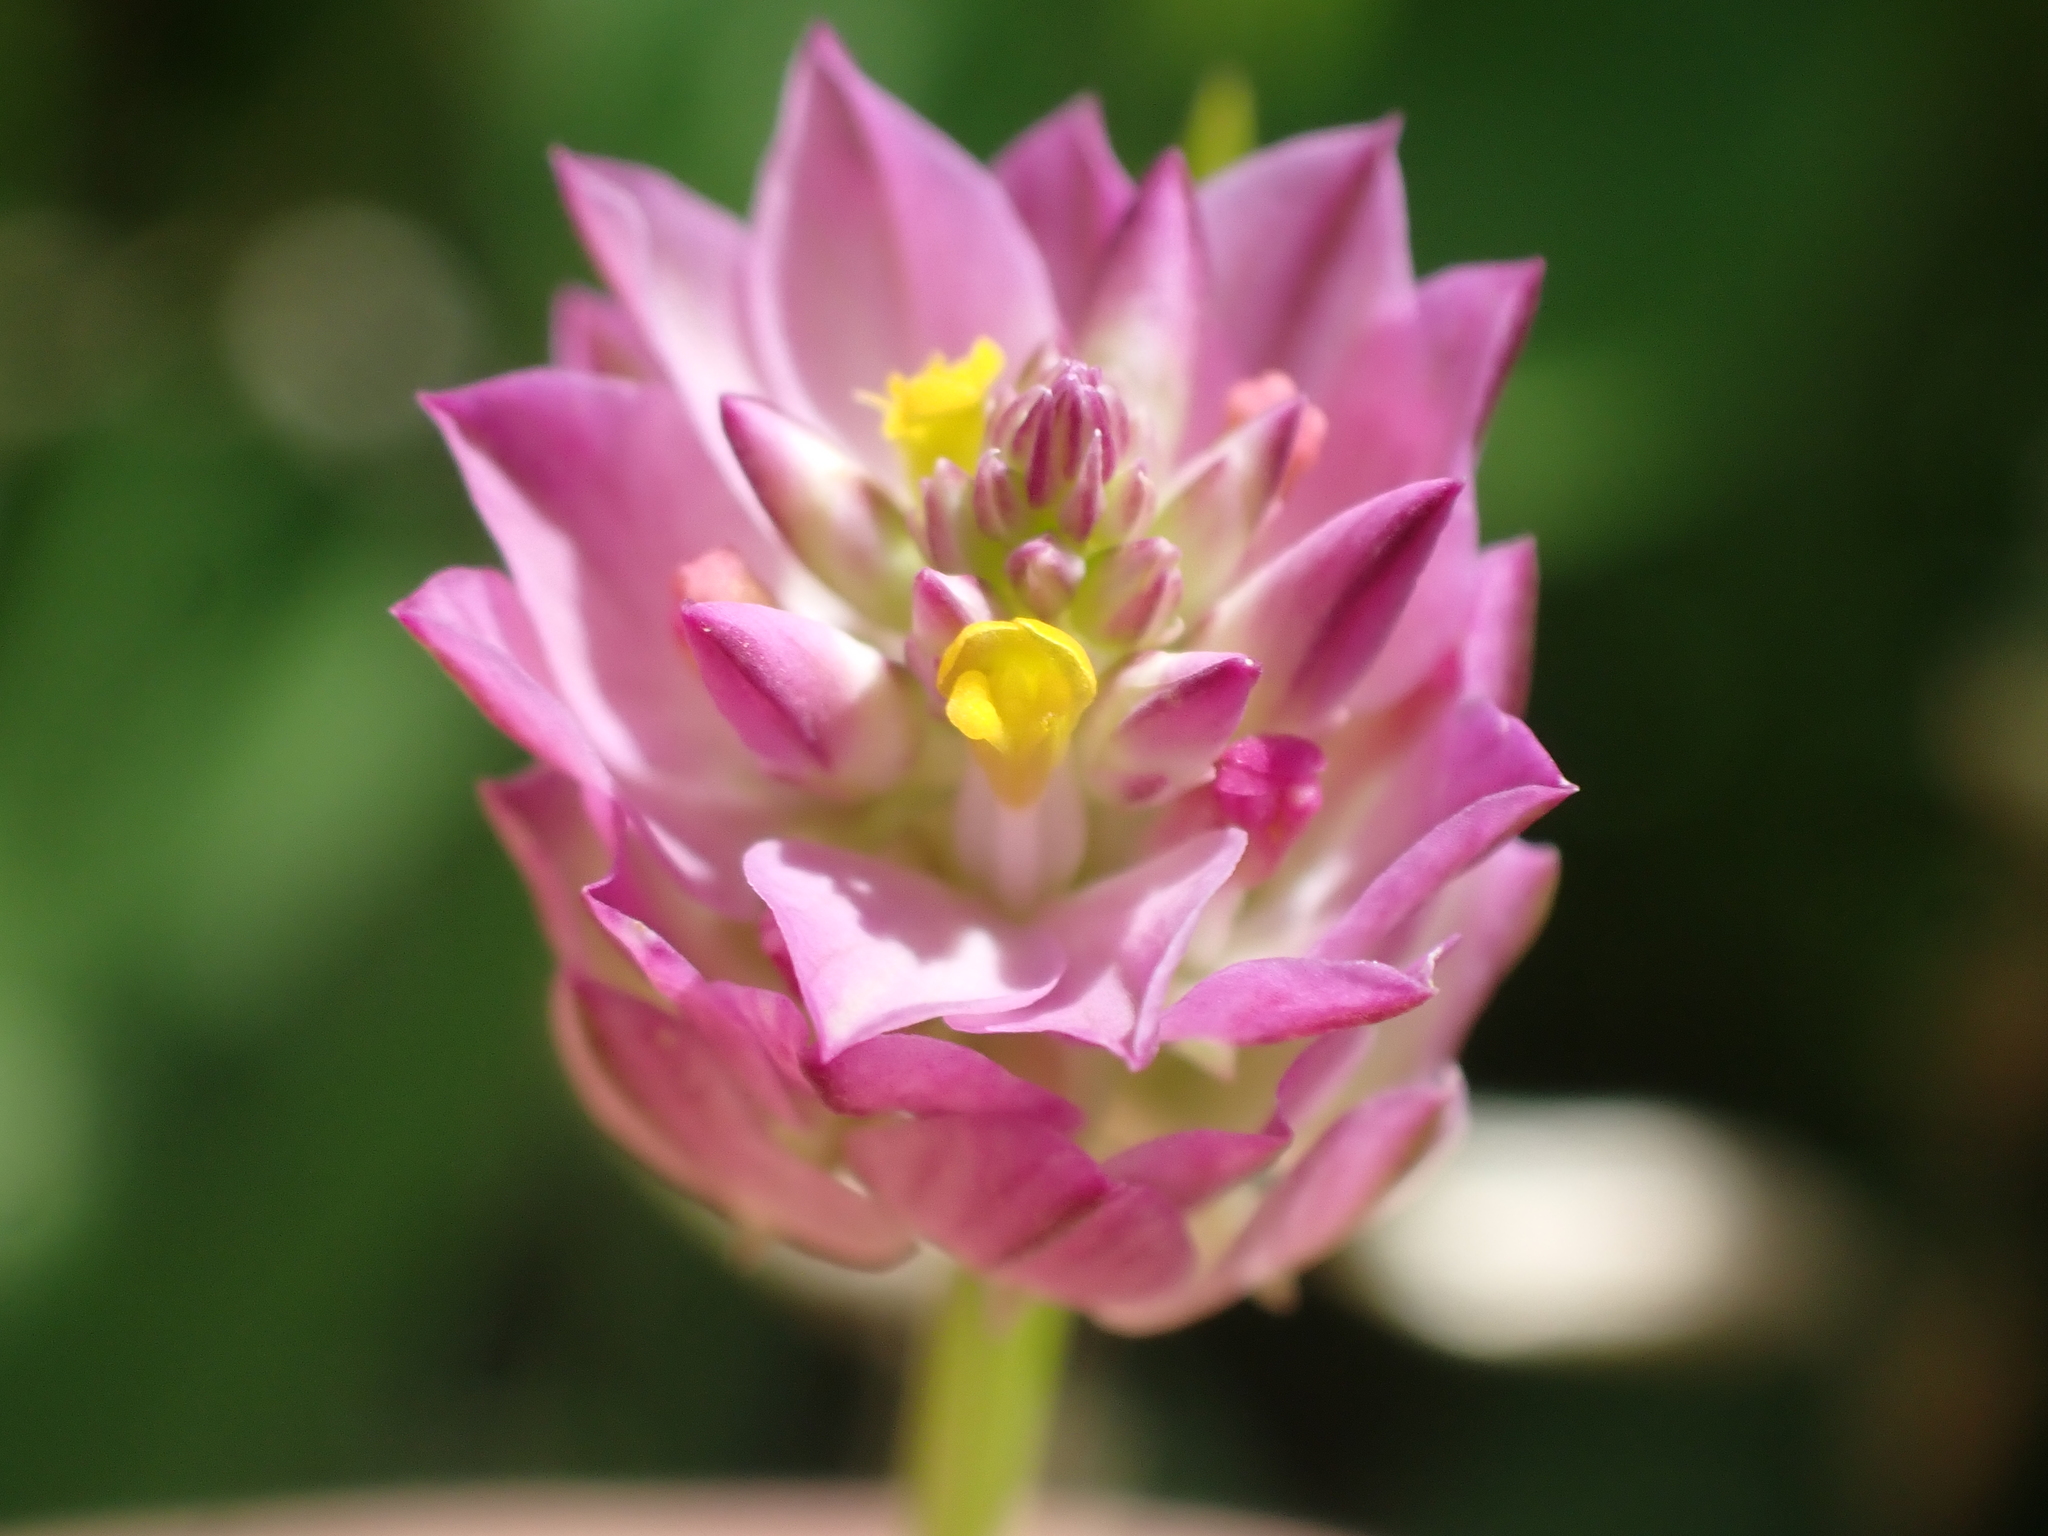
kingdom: Plantae
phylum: Tracheophyta
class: Magnoliopsida
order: Fabales
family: Polygalaceae
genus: Polygala
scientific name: Polygala sanguinea
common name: Blood milkwort
